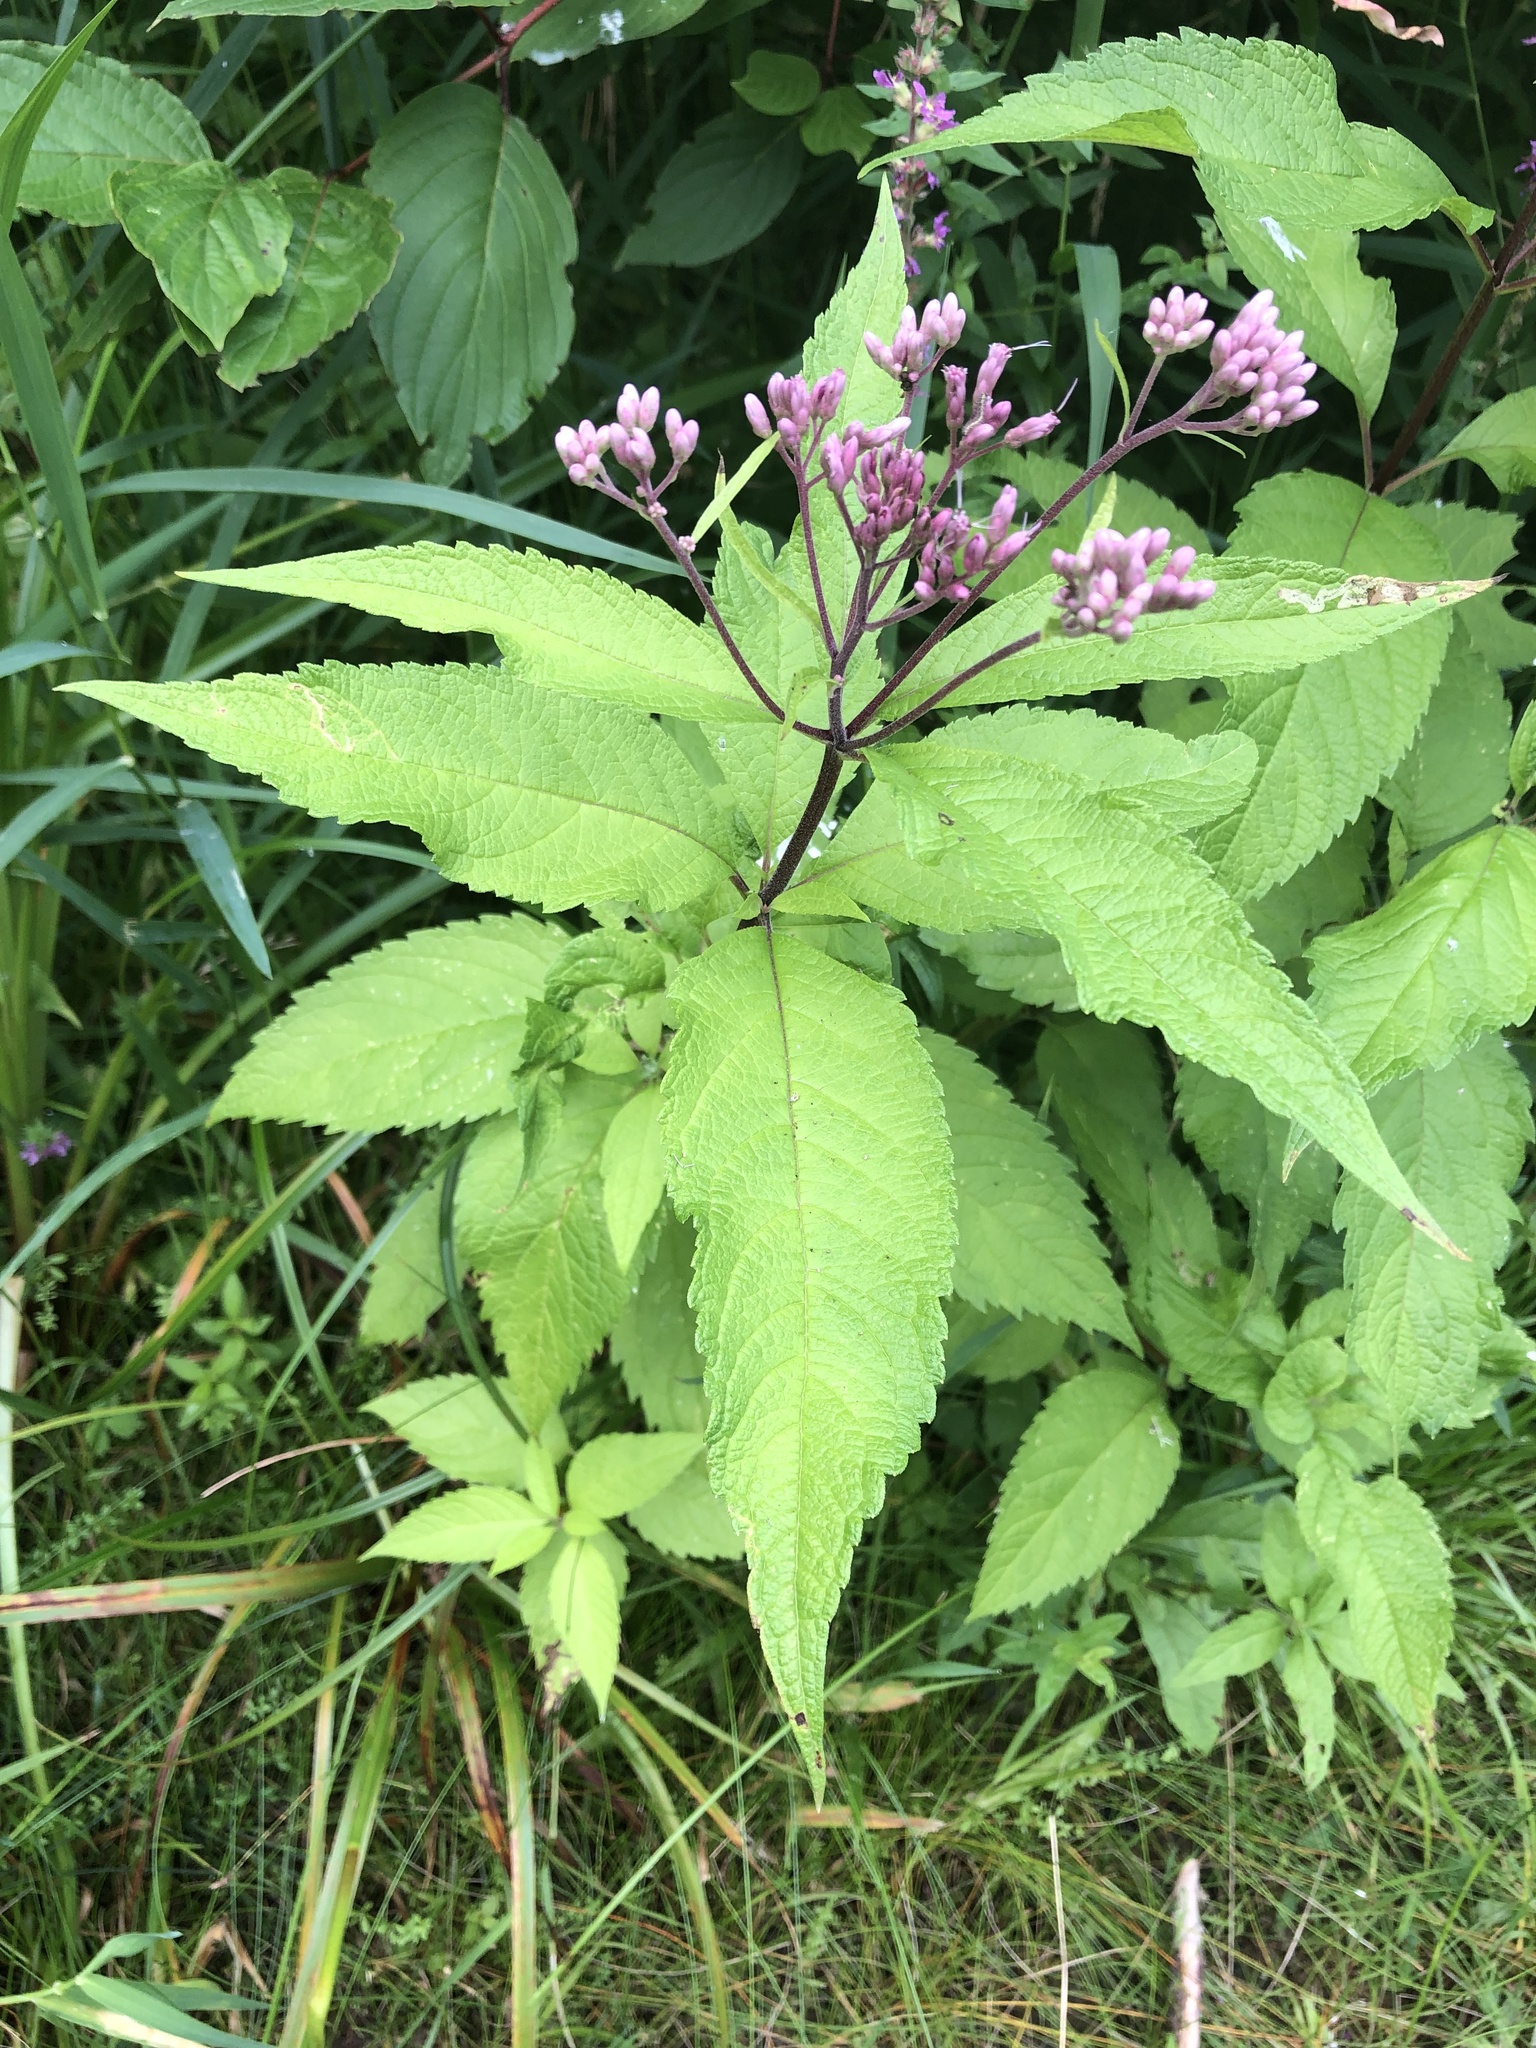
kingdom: Plantae
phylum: Tracheophyta
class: Magnoliopsida
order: Asterales
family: Asteraceae
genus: Eutrochium
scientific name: Eutrochium maculatum
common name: Spotted joe pye weed
